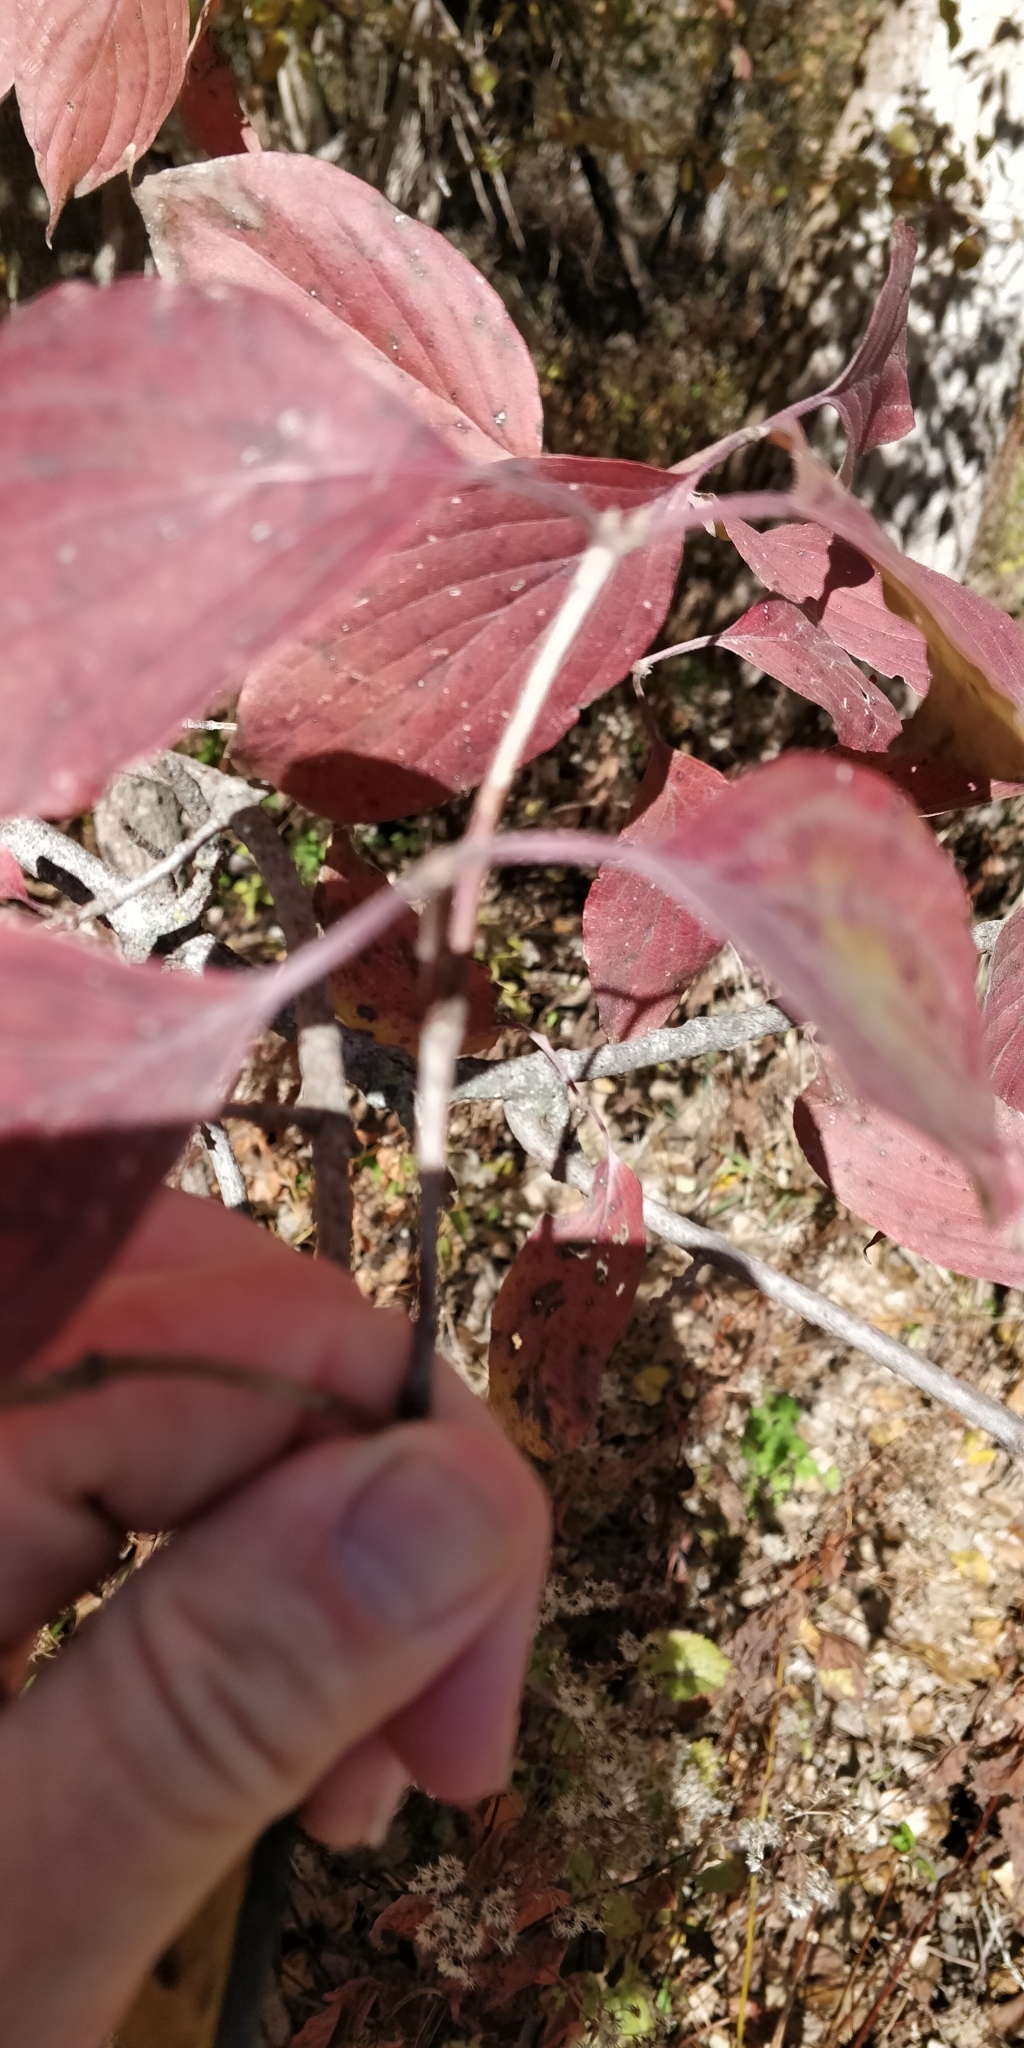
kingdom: Plantae
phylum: Tracheophyta
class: Magnoliopsida
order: Cornales
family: Cornaceae
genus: Cornus
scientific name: Cornus drummondii
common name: Rough-leaf dogwood
